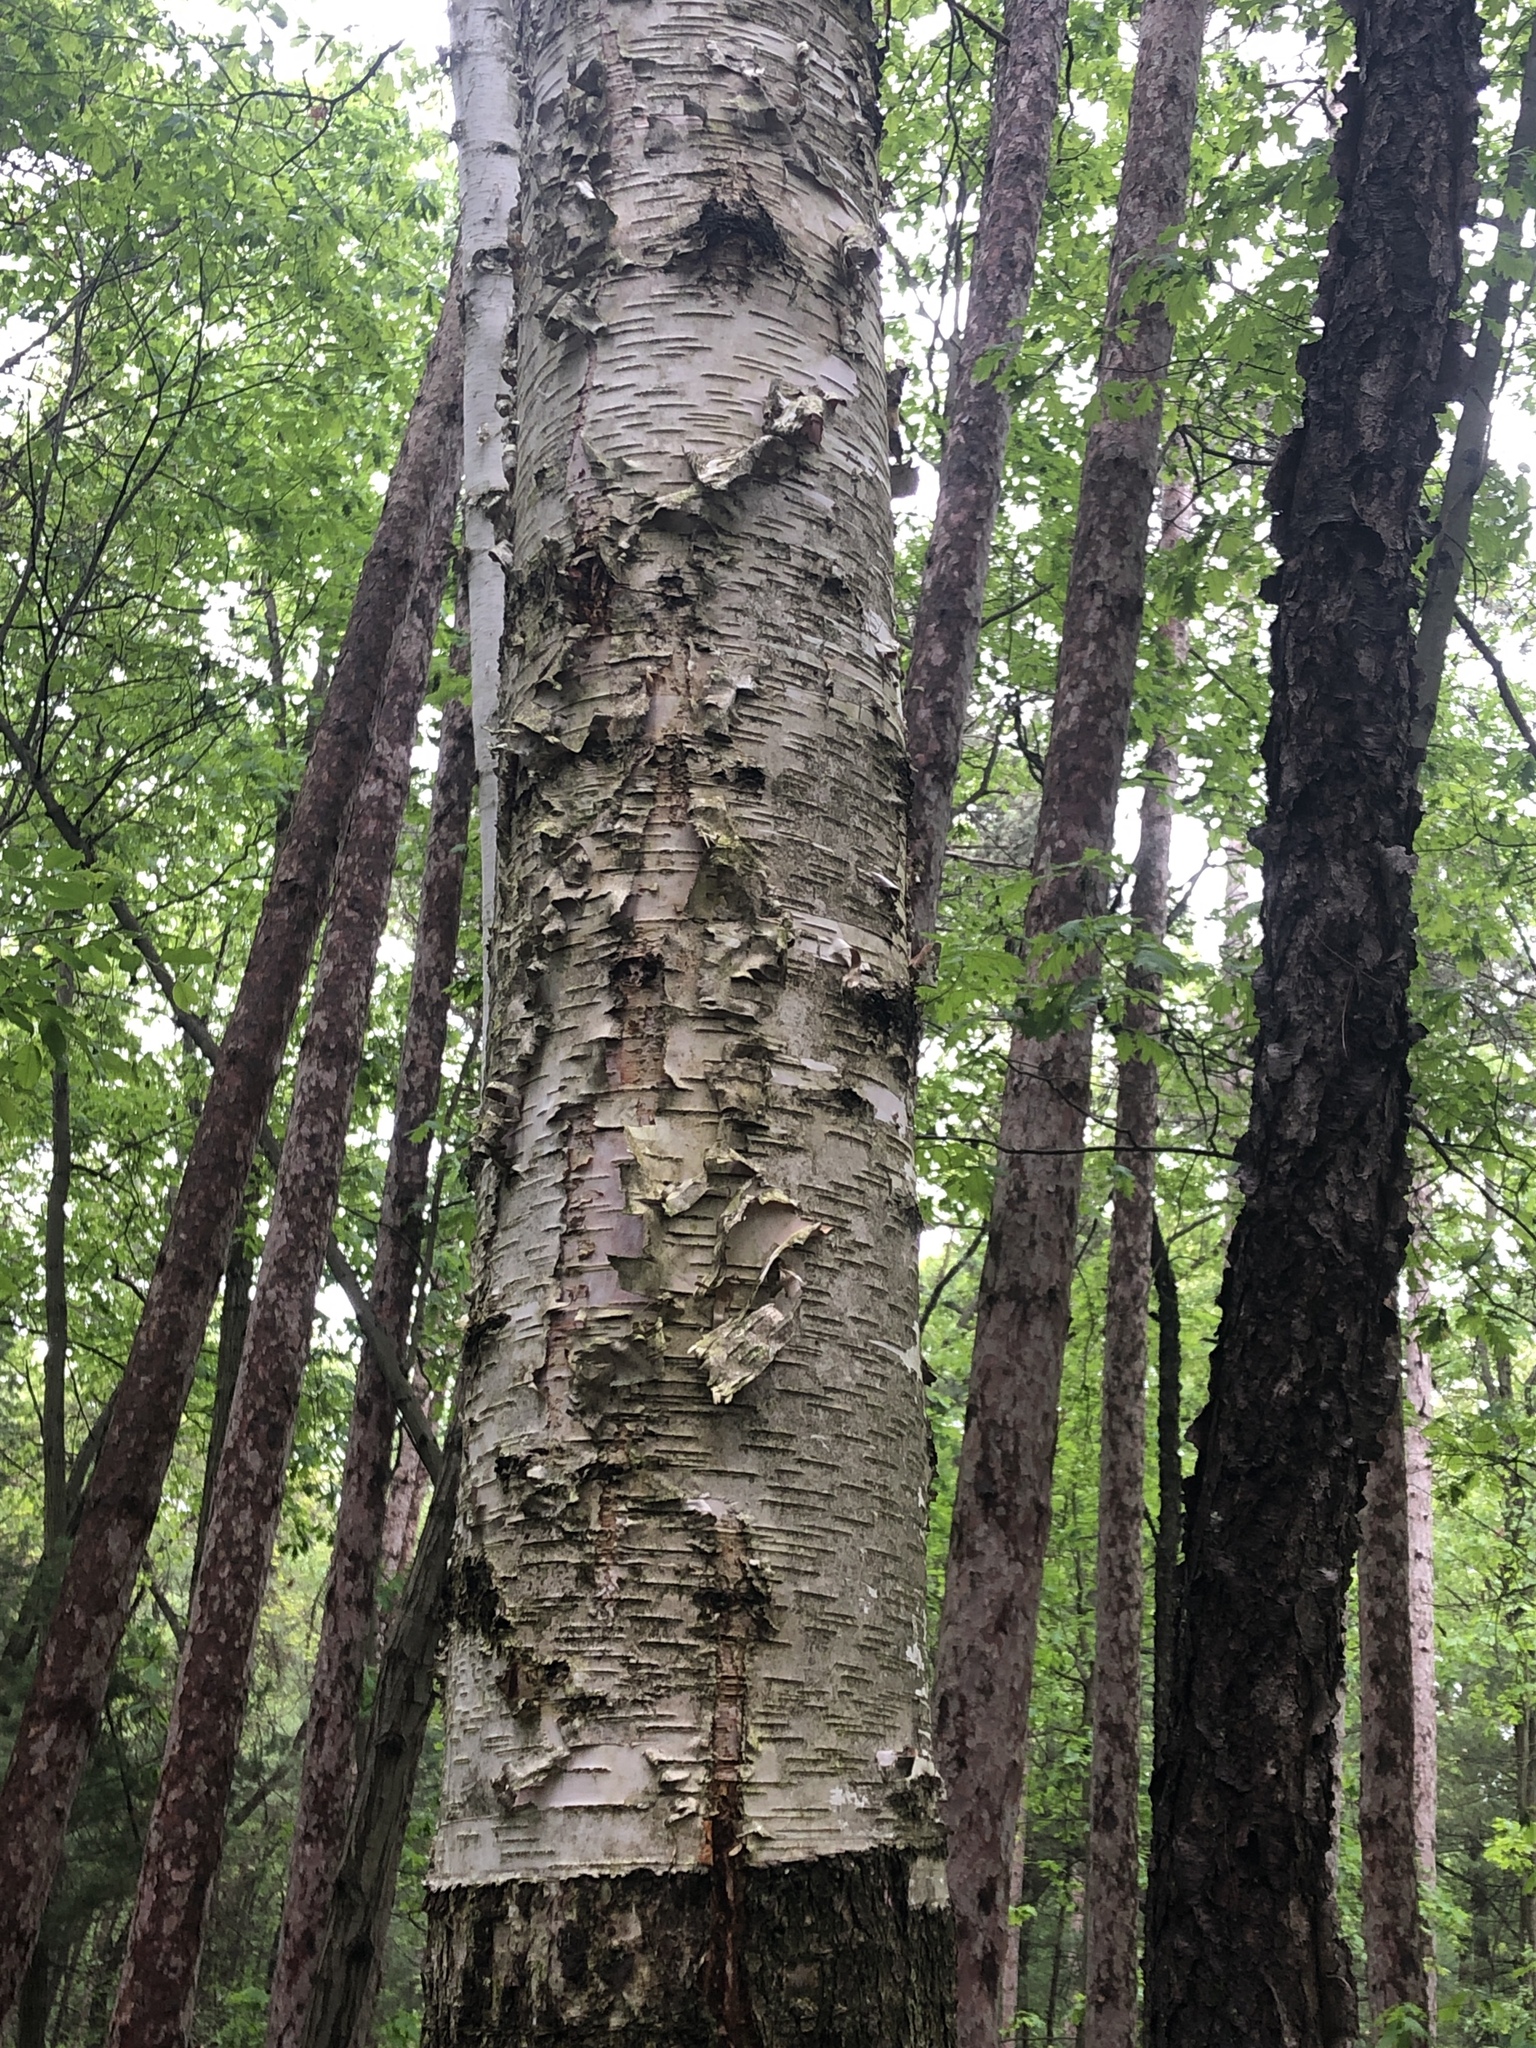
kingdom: Plantae
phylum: Tracheophyta
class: Magnoliopsida
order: Fagales
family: Betulaceae
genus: Betula
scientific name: Betula papyrifera
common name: Paper birch
